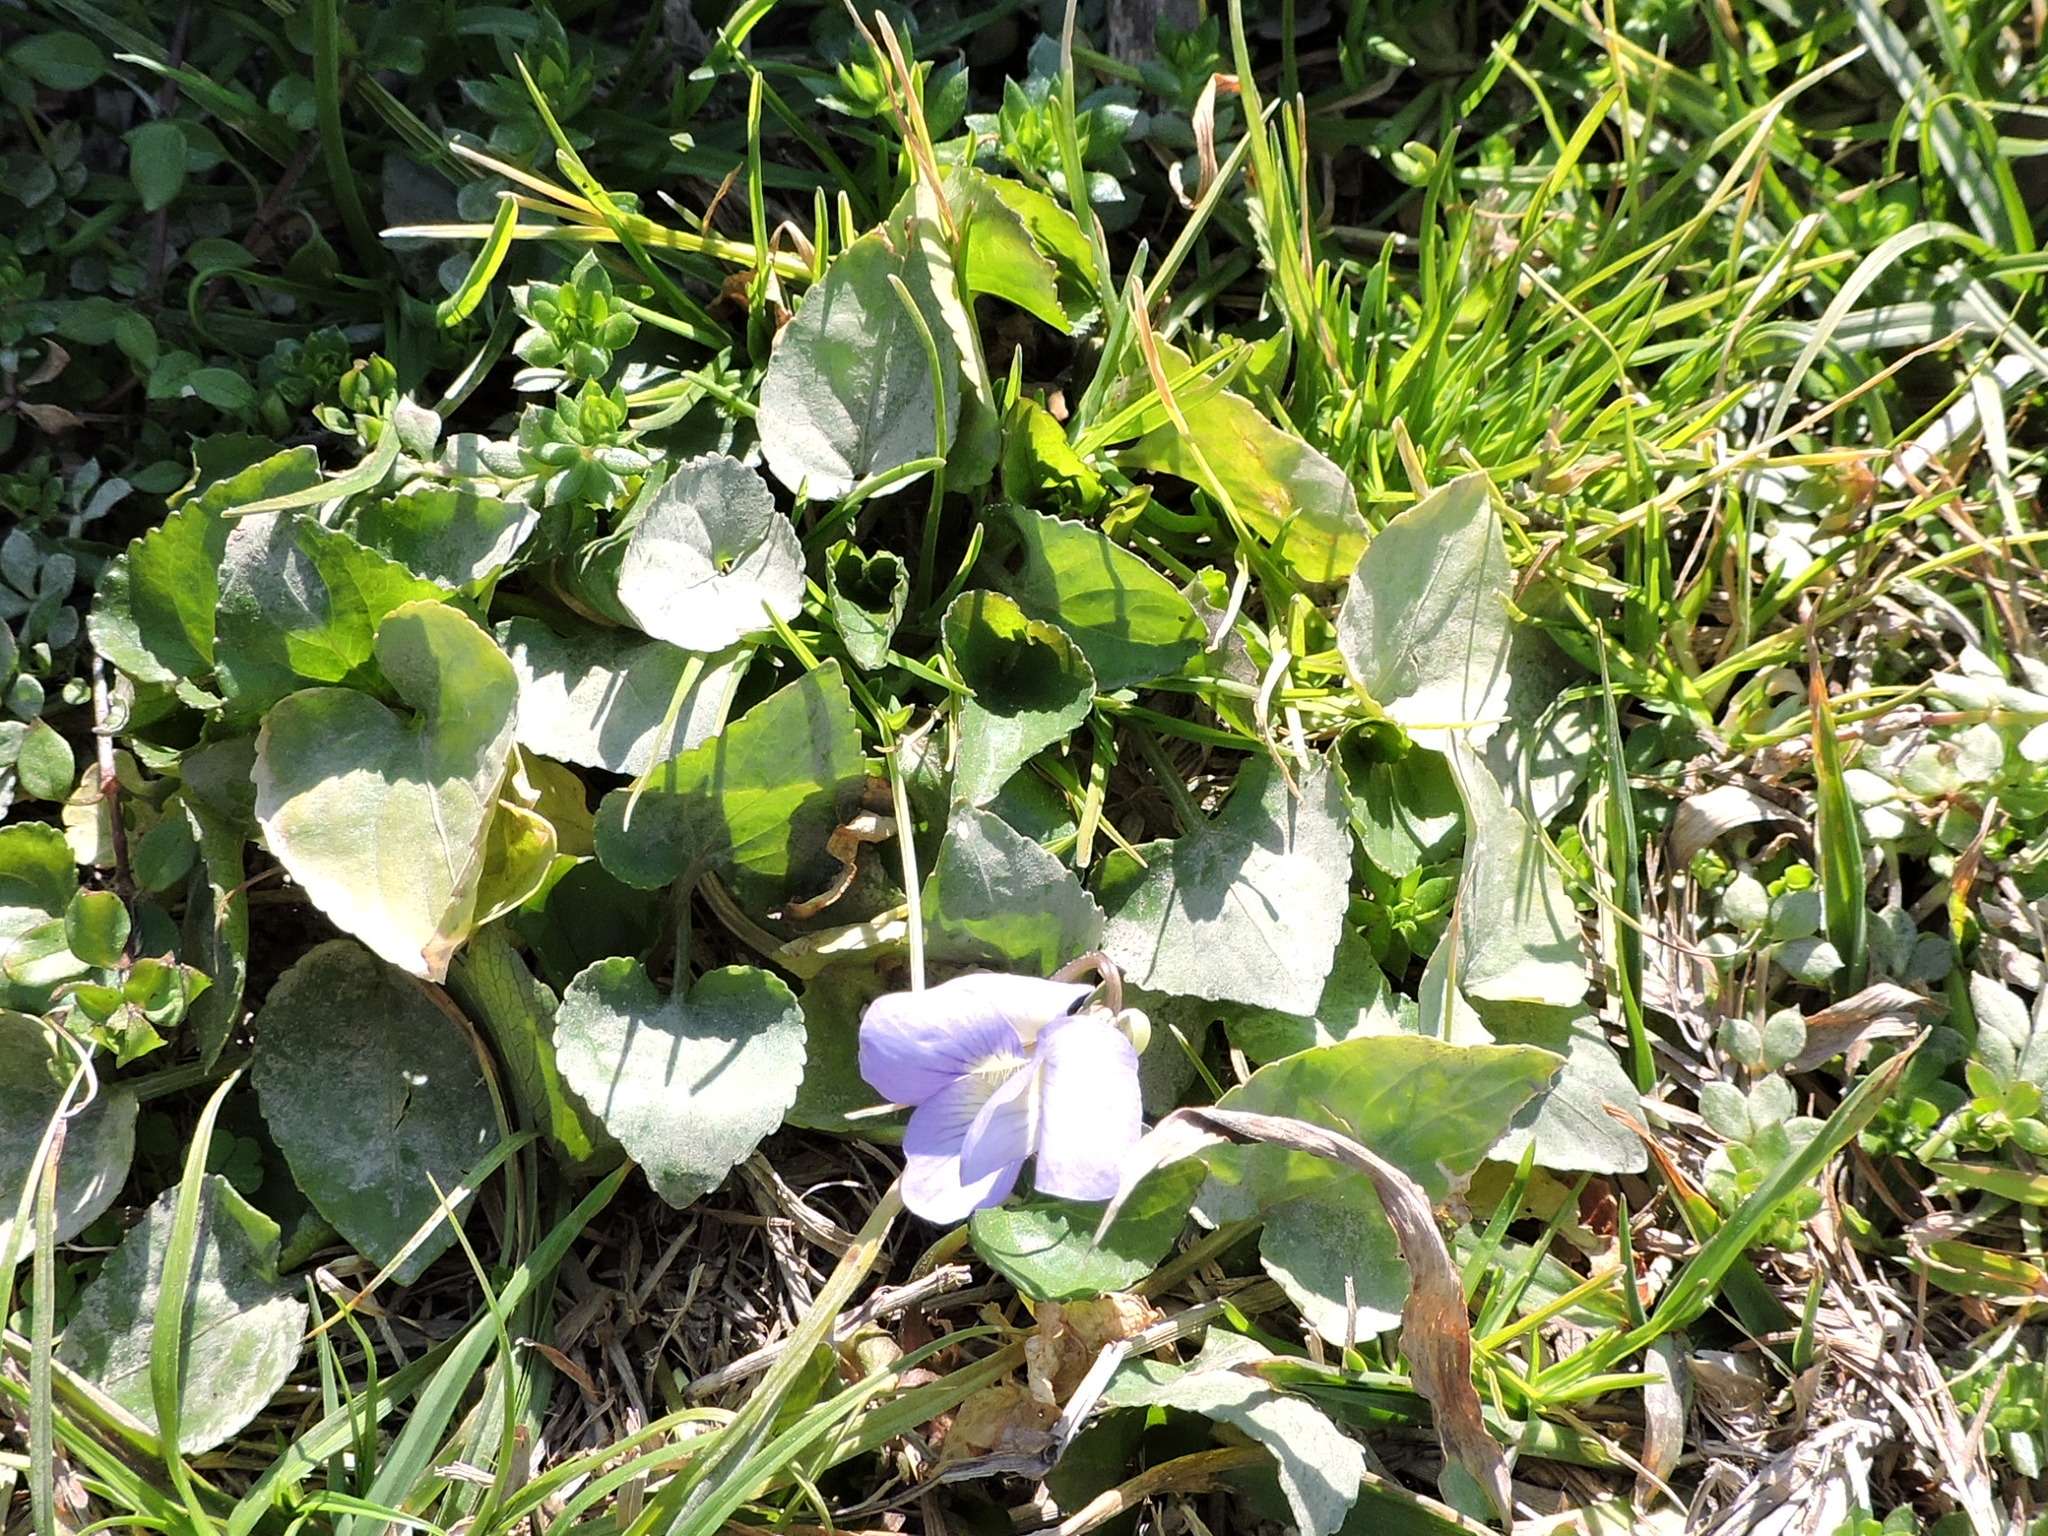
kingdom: Plantae
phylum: Tracheophyta
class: Magnoliopsida
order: Malpighiales
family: Violaceae
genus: Viola
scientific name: Viola sororia
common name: Dooryard violet
